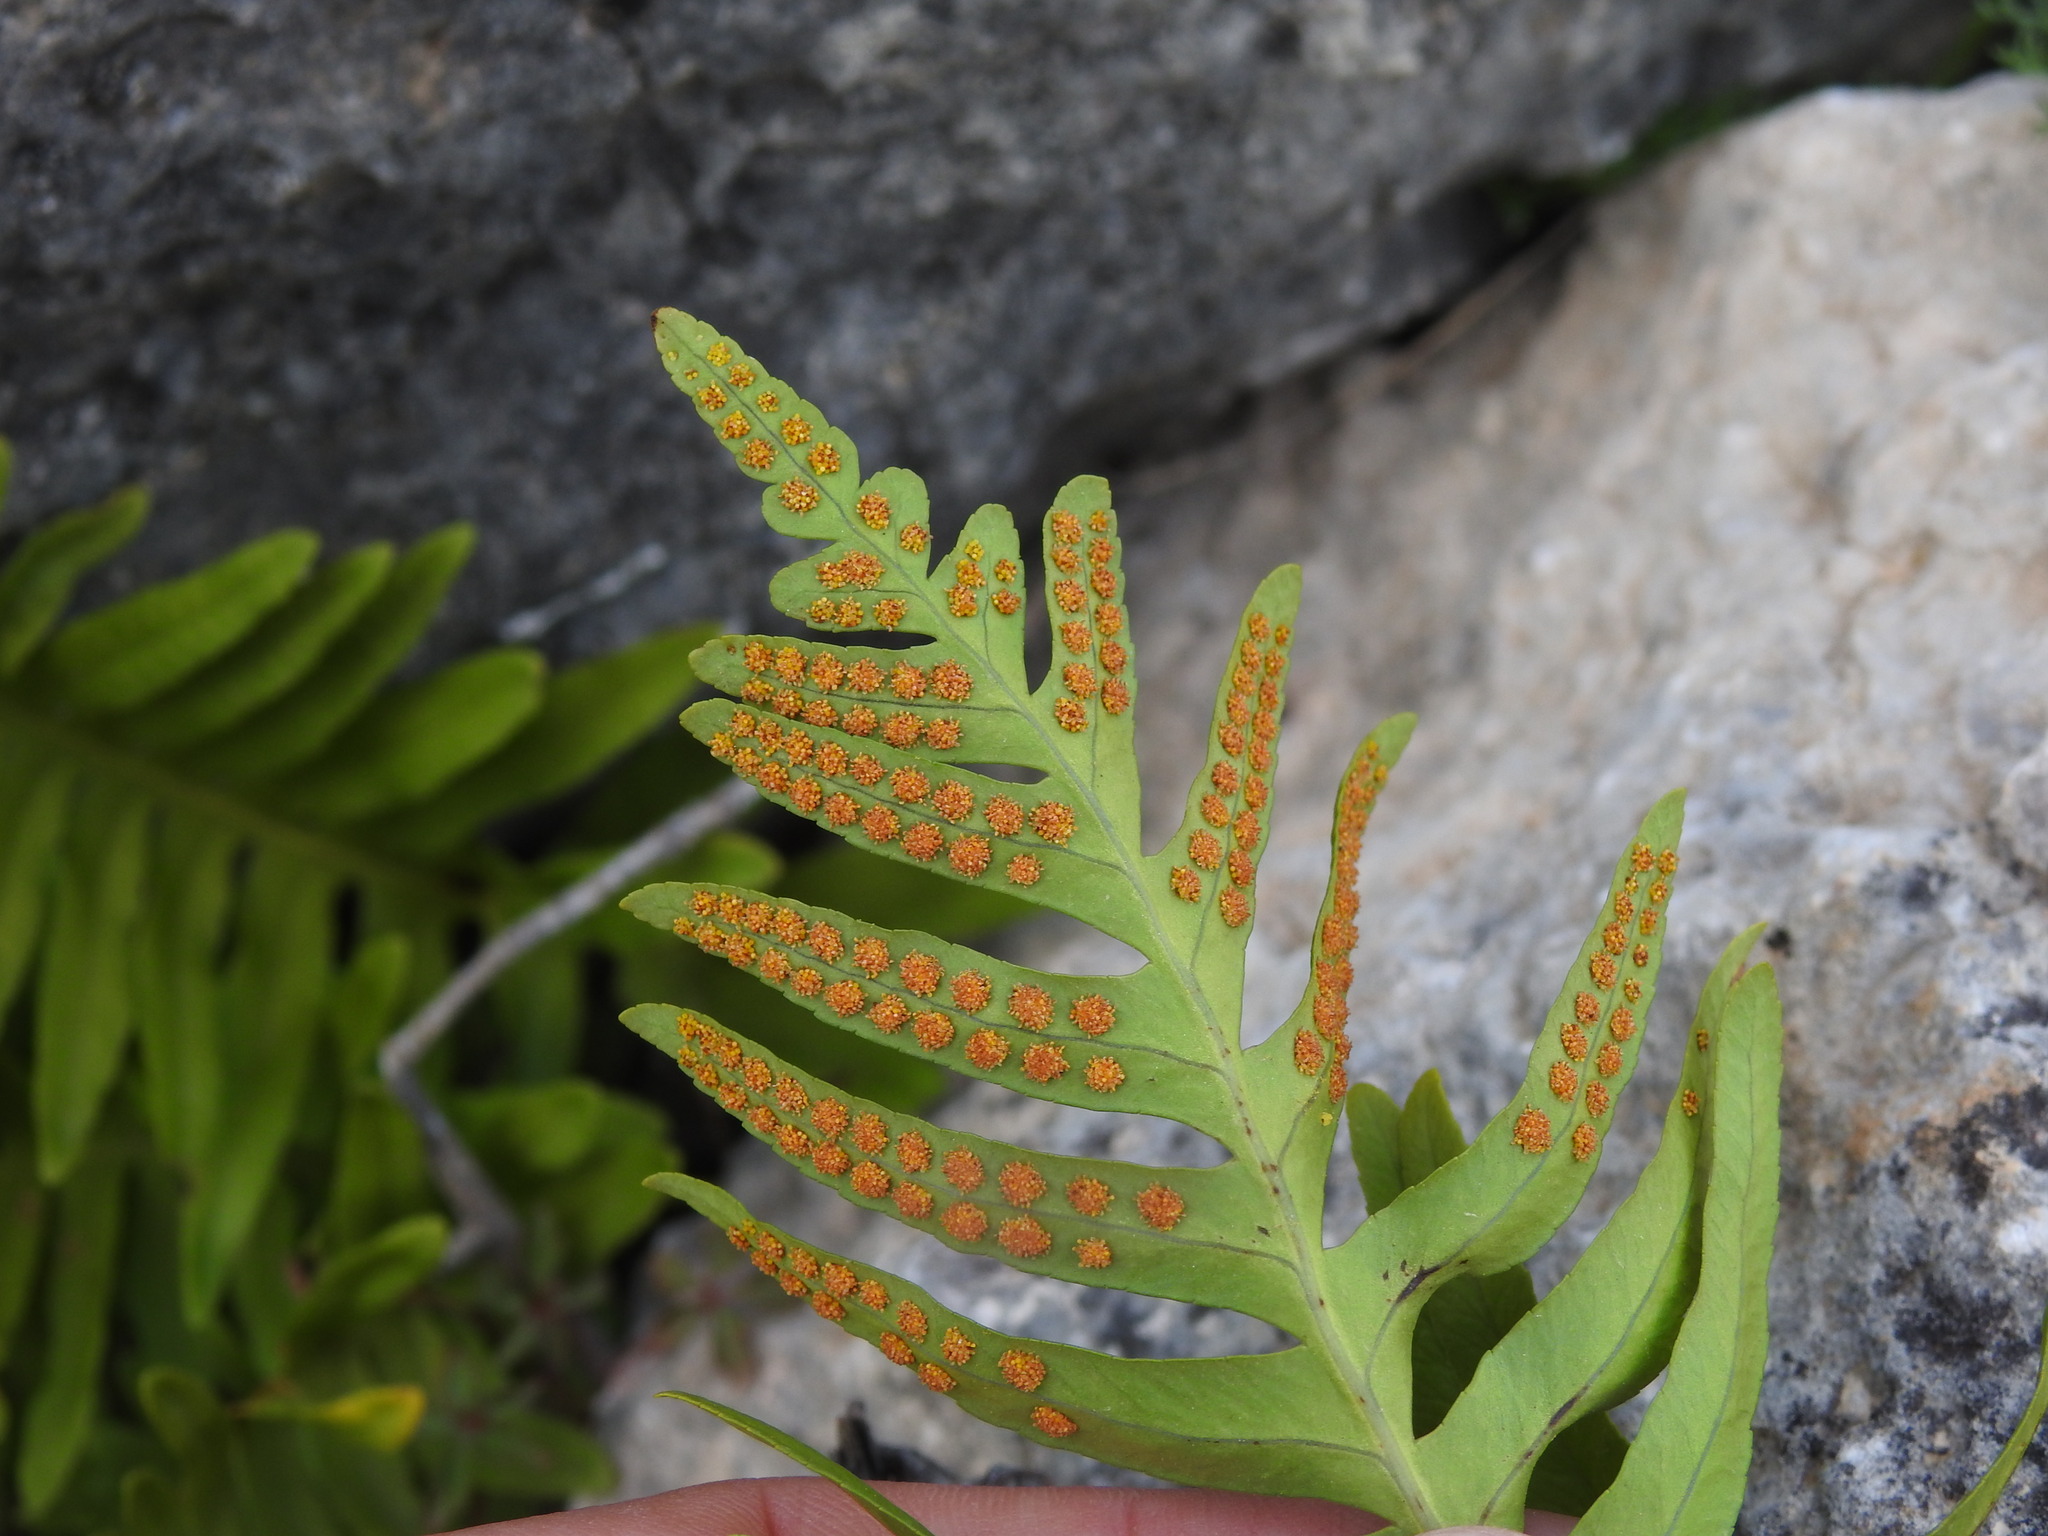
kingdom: Plantae
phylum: Tracheophyta
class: Polypodiopsida
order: Polypodiales
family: Polypodiaceae
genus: Polypodium
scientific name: Polypodium cambricum
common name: Southern polypody
